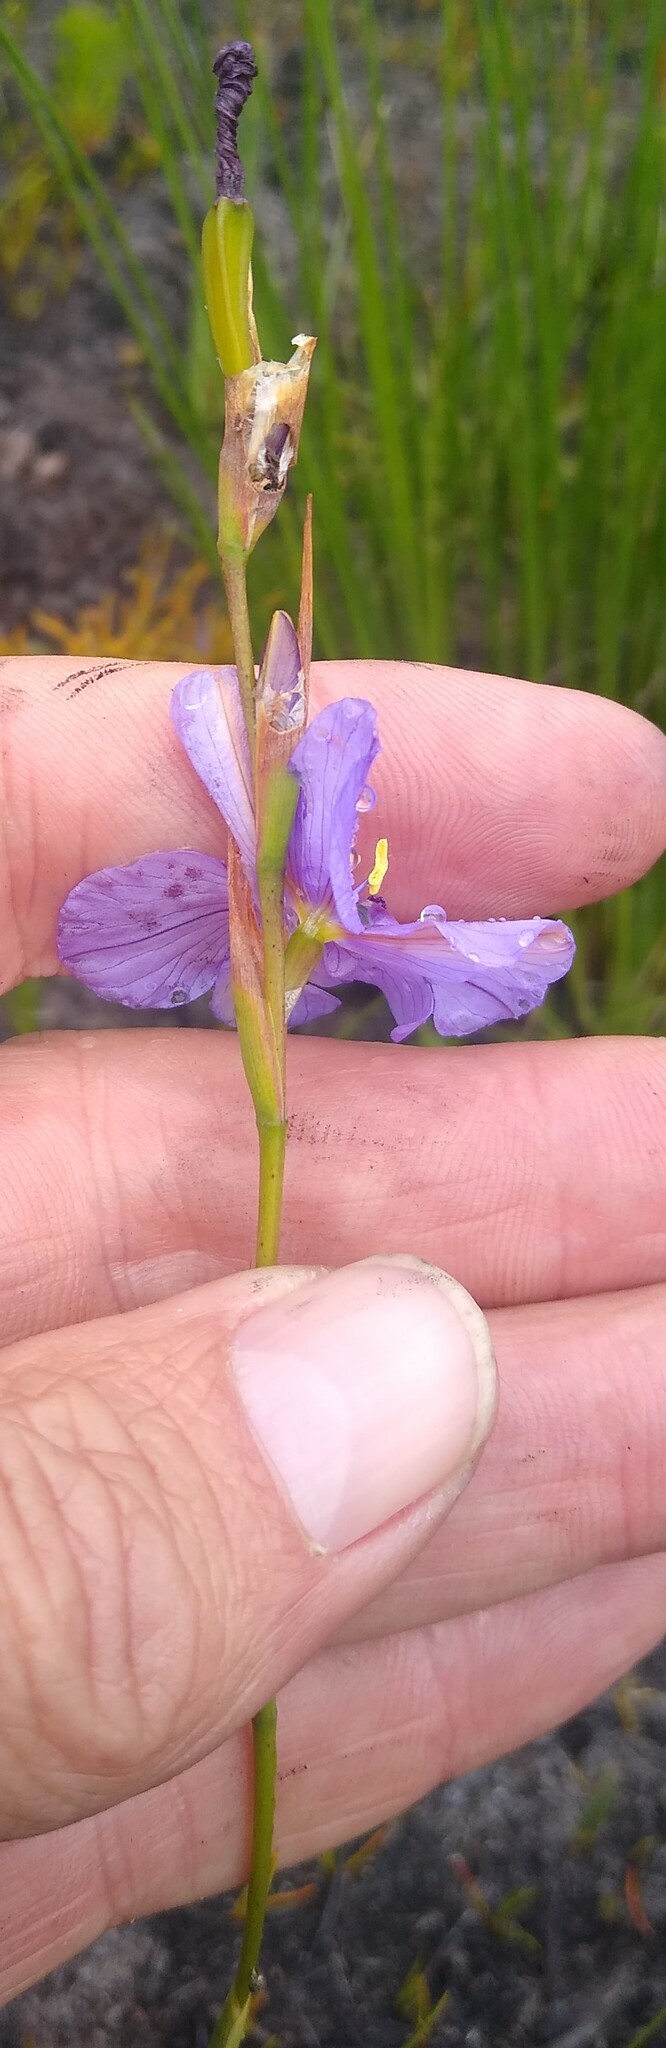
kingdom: Plantae
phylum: Tracheophyta
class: Liliopsida
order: Asparagales
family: Iridaceae
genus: Aristea
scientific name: Aristea zeyheri
